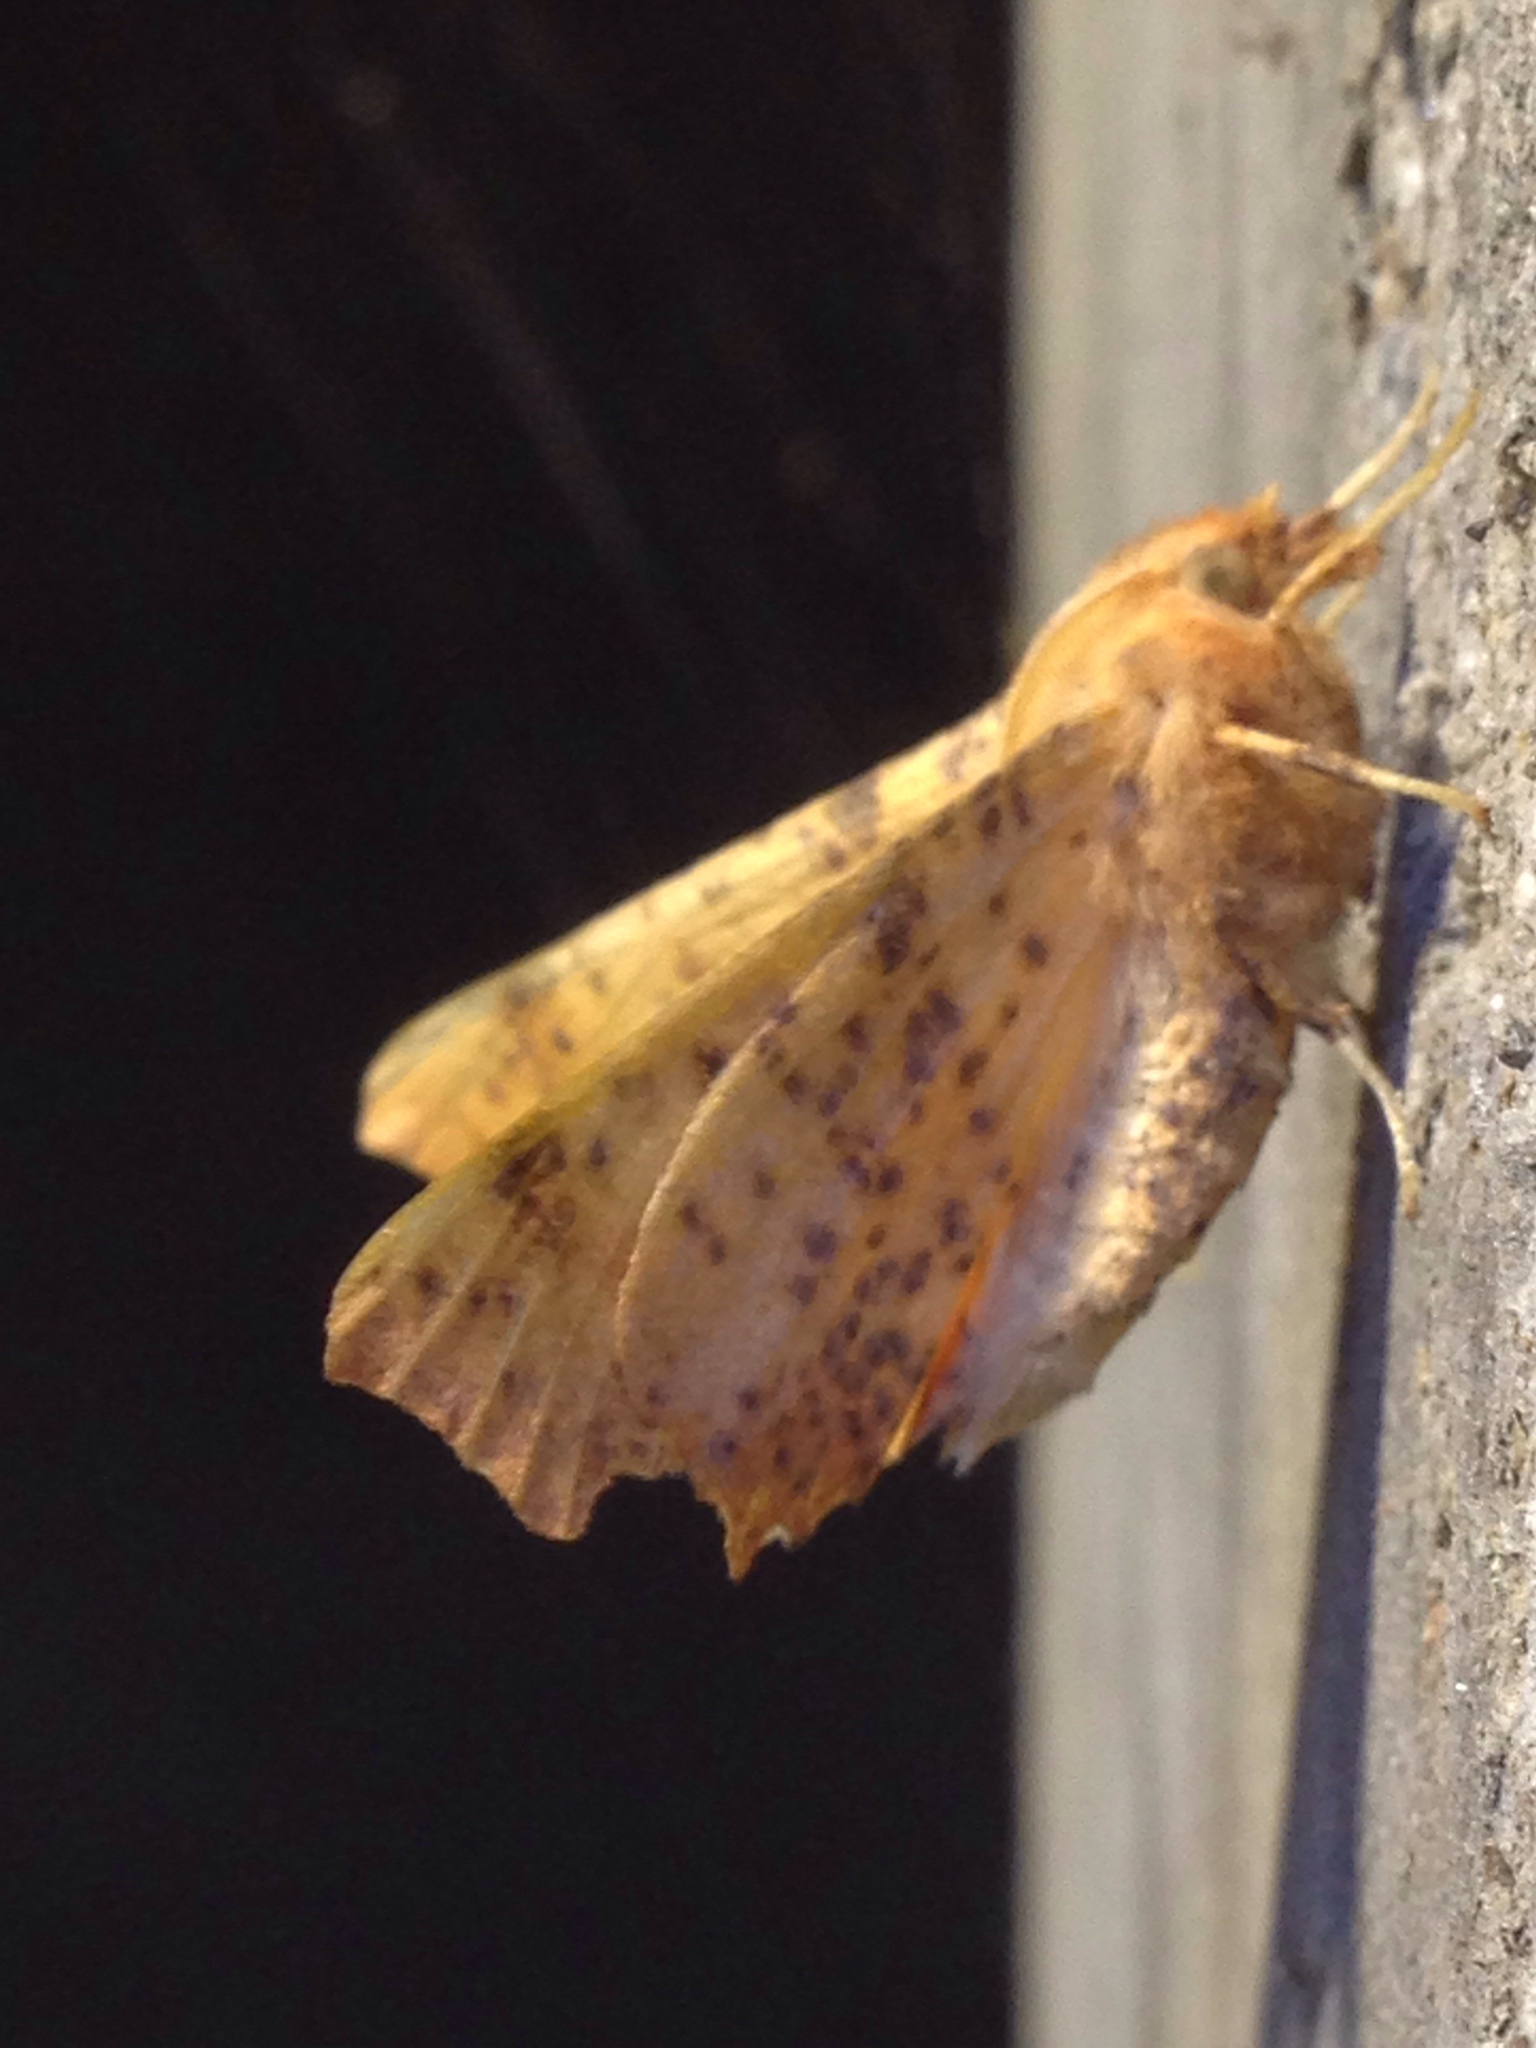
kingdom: Animalia
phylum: Arthropoda
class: Insecta
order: Lepidoptera
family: Geometridae
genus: Ennomos
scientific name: Ennomos magnaria
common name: Maple spanworm
